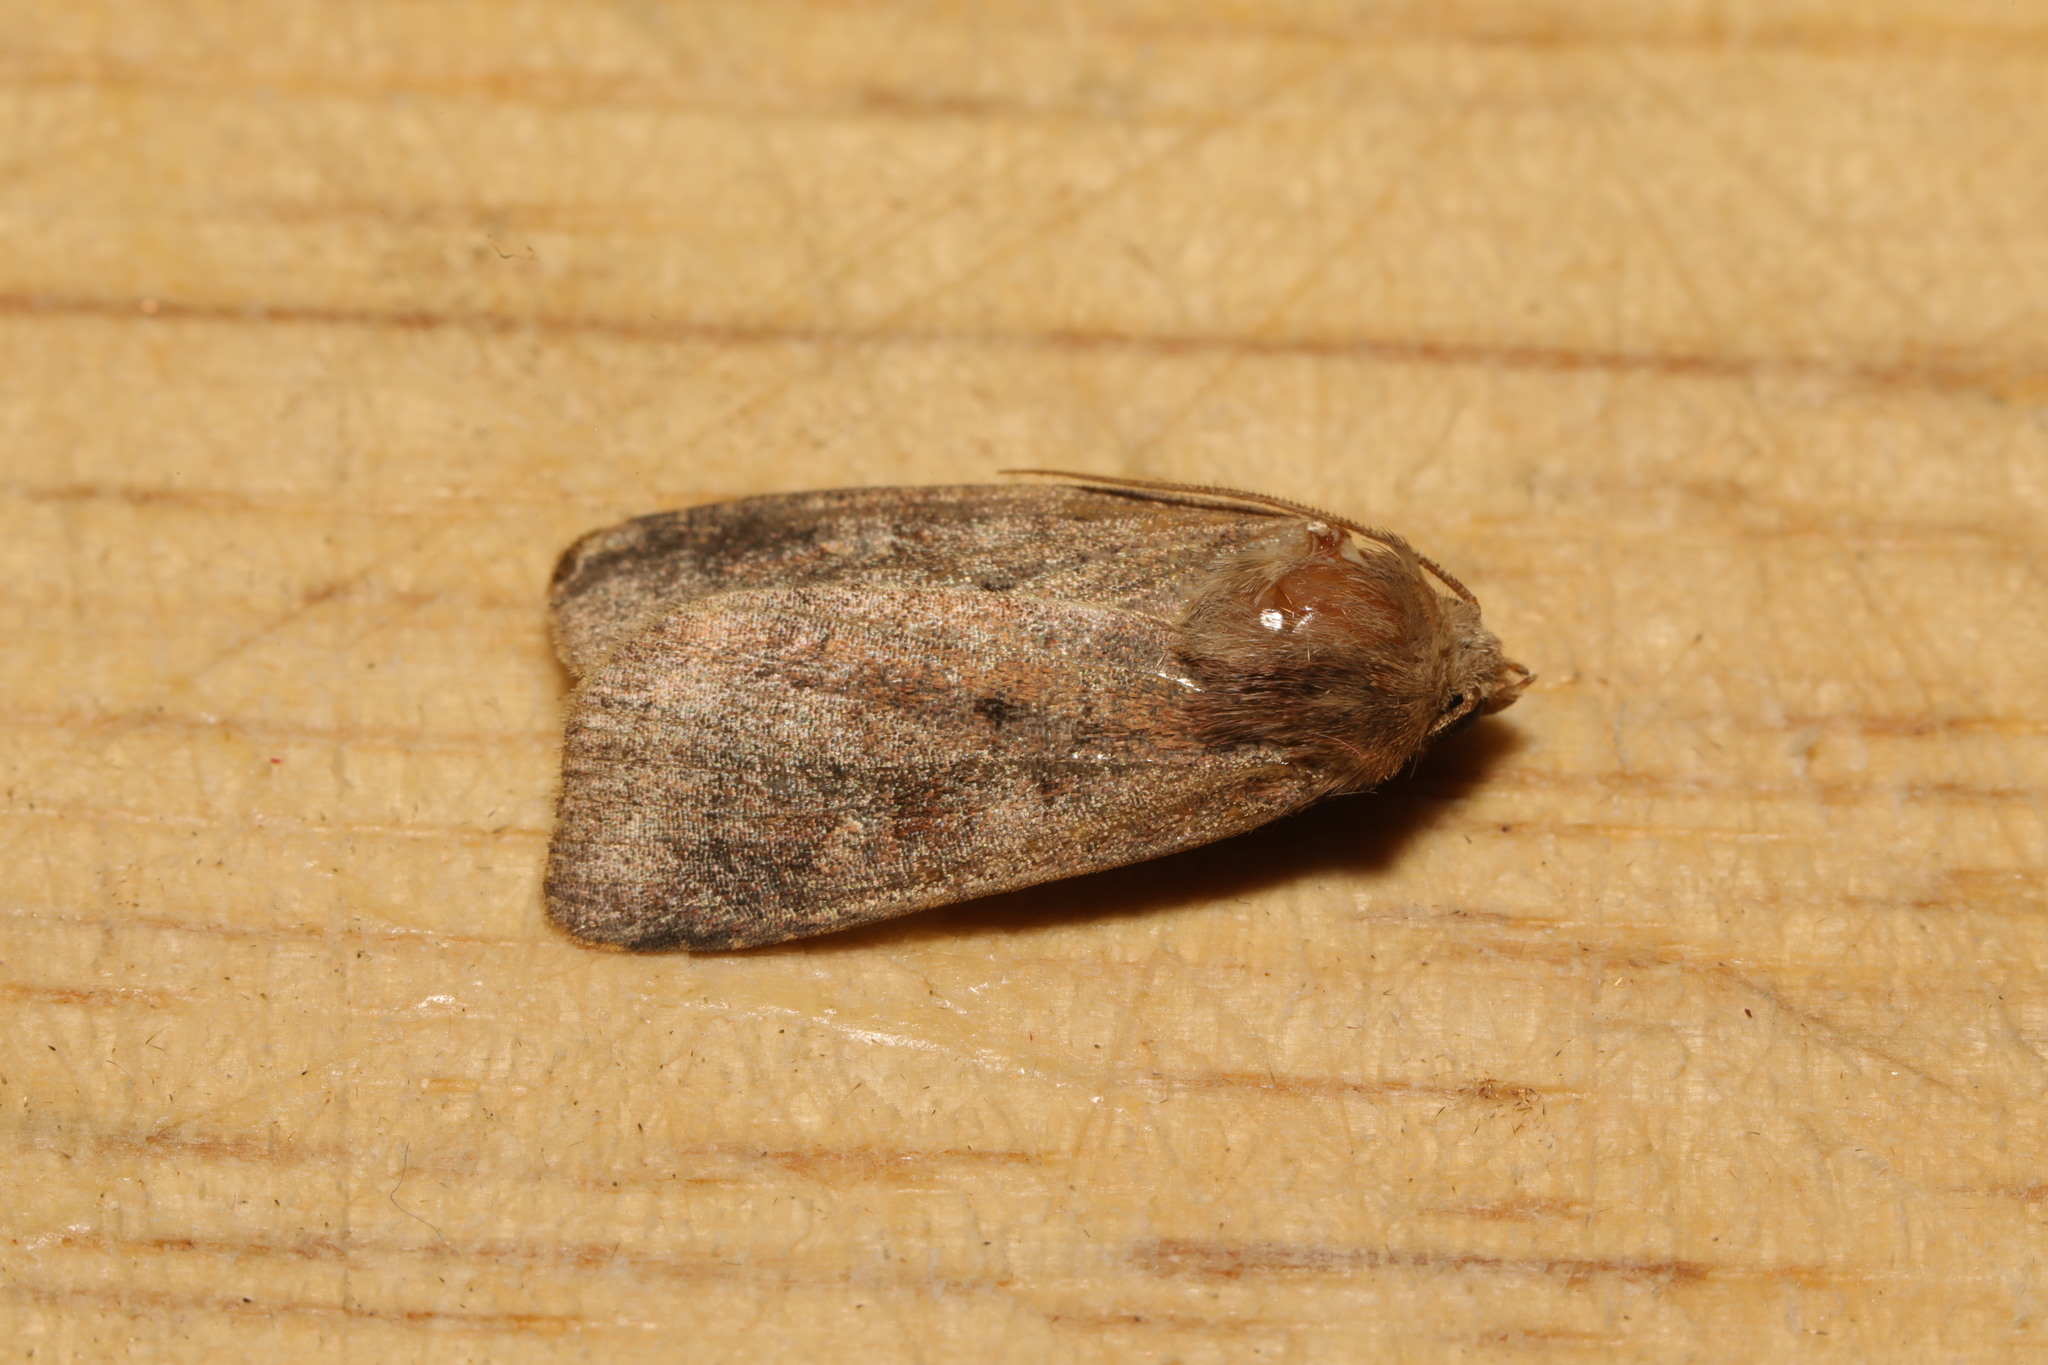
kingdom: Animalia
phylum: Arthropoda
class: Insecta
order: Lepidoptera
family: Noctuidae
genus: Xestia
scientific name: Xestia xanthographa
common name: Square-spot rustic
